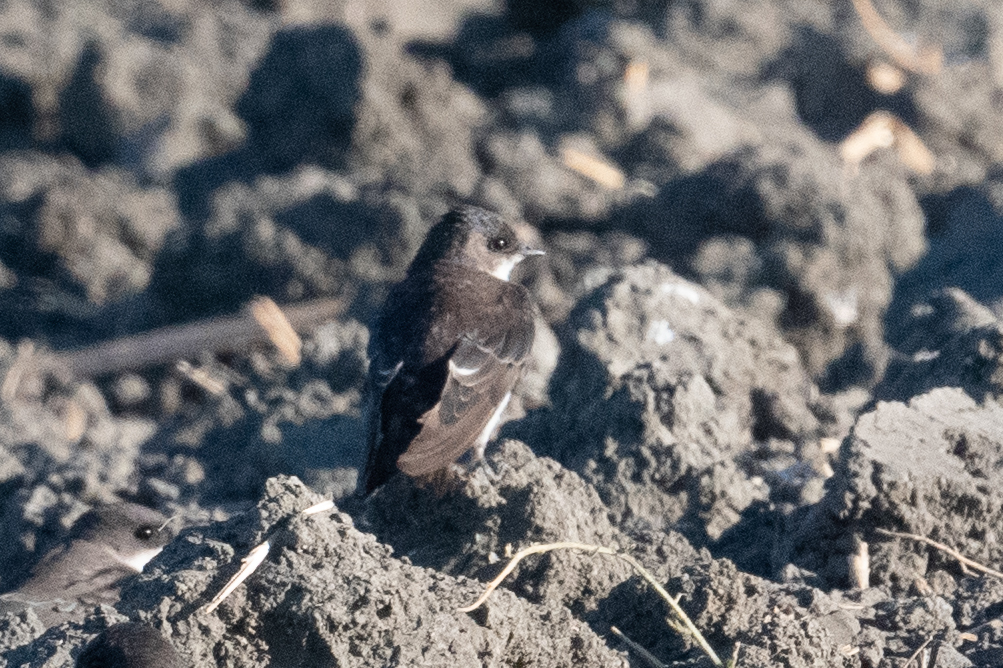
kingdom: Animalia
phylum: Chordata
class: Aves
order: Passeriformes
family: Hirundinidae
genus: Tachycineta
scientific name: Tachycineta bicolor
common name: Tree swallow
